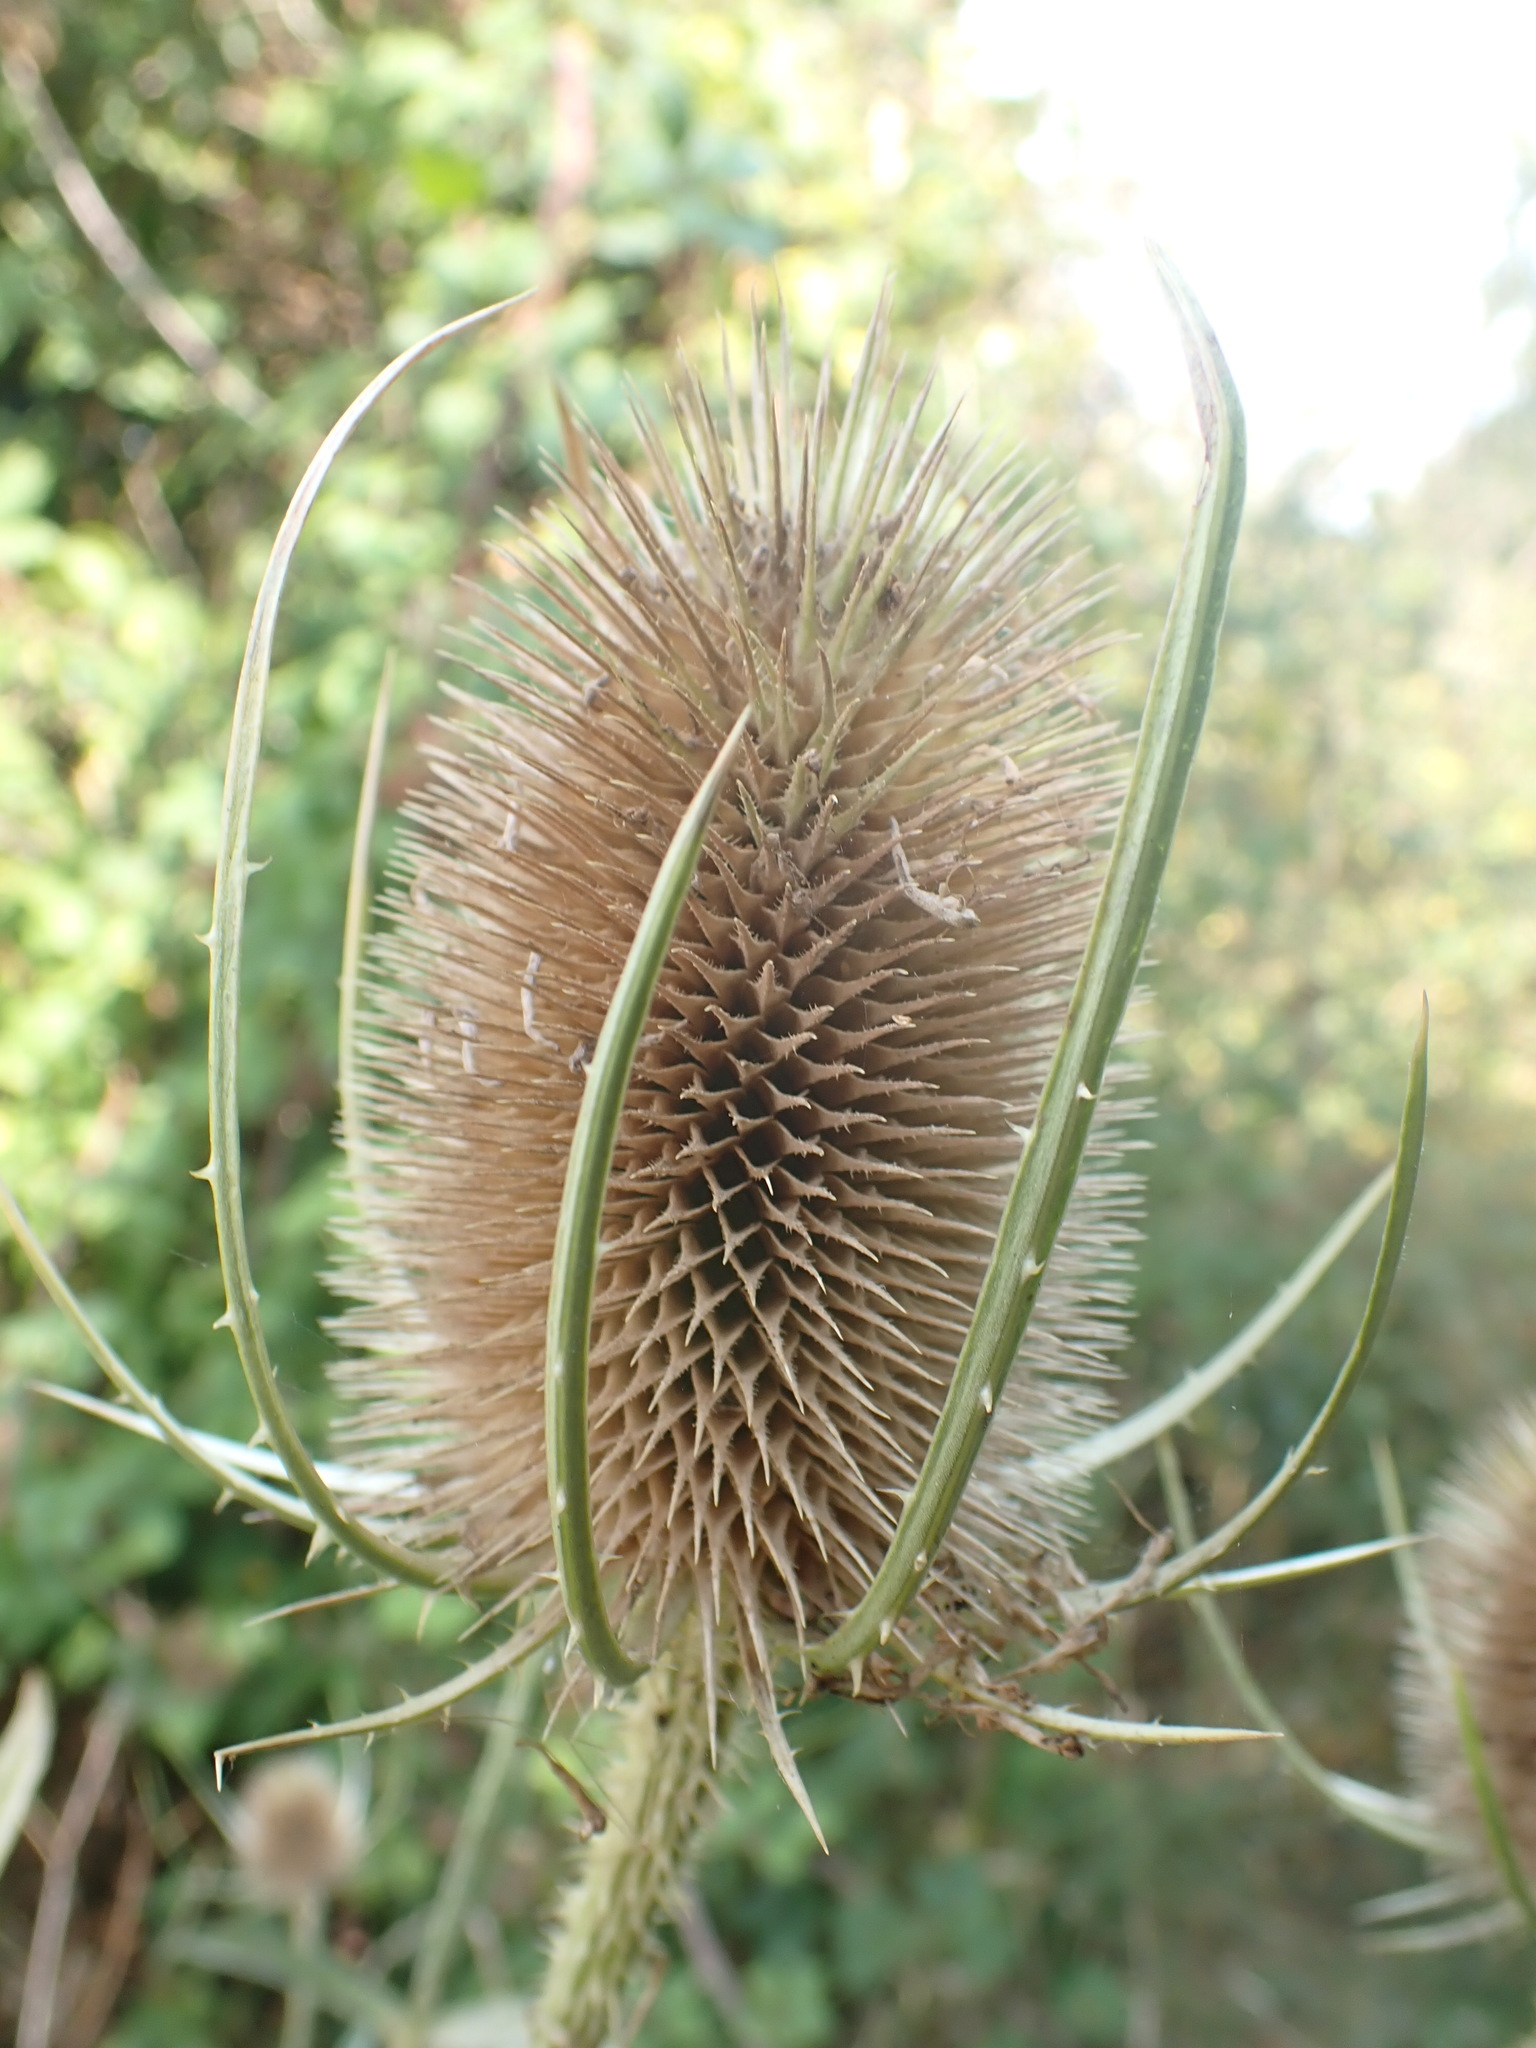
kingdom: Plantae
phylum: Tracheophyta
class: Magnoliopsida
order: Dipsacales
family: Caprifoliaceae
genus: Dipsacus
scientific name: Dipsacus fullonum
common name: Teasel
